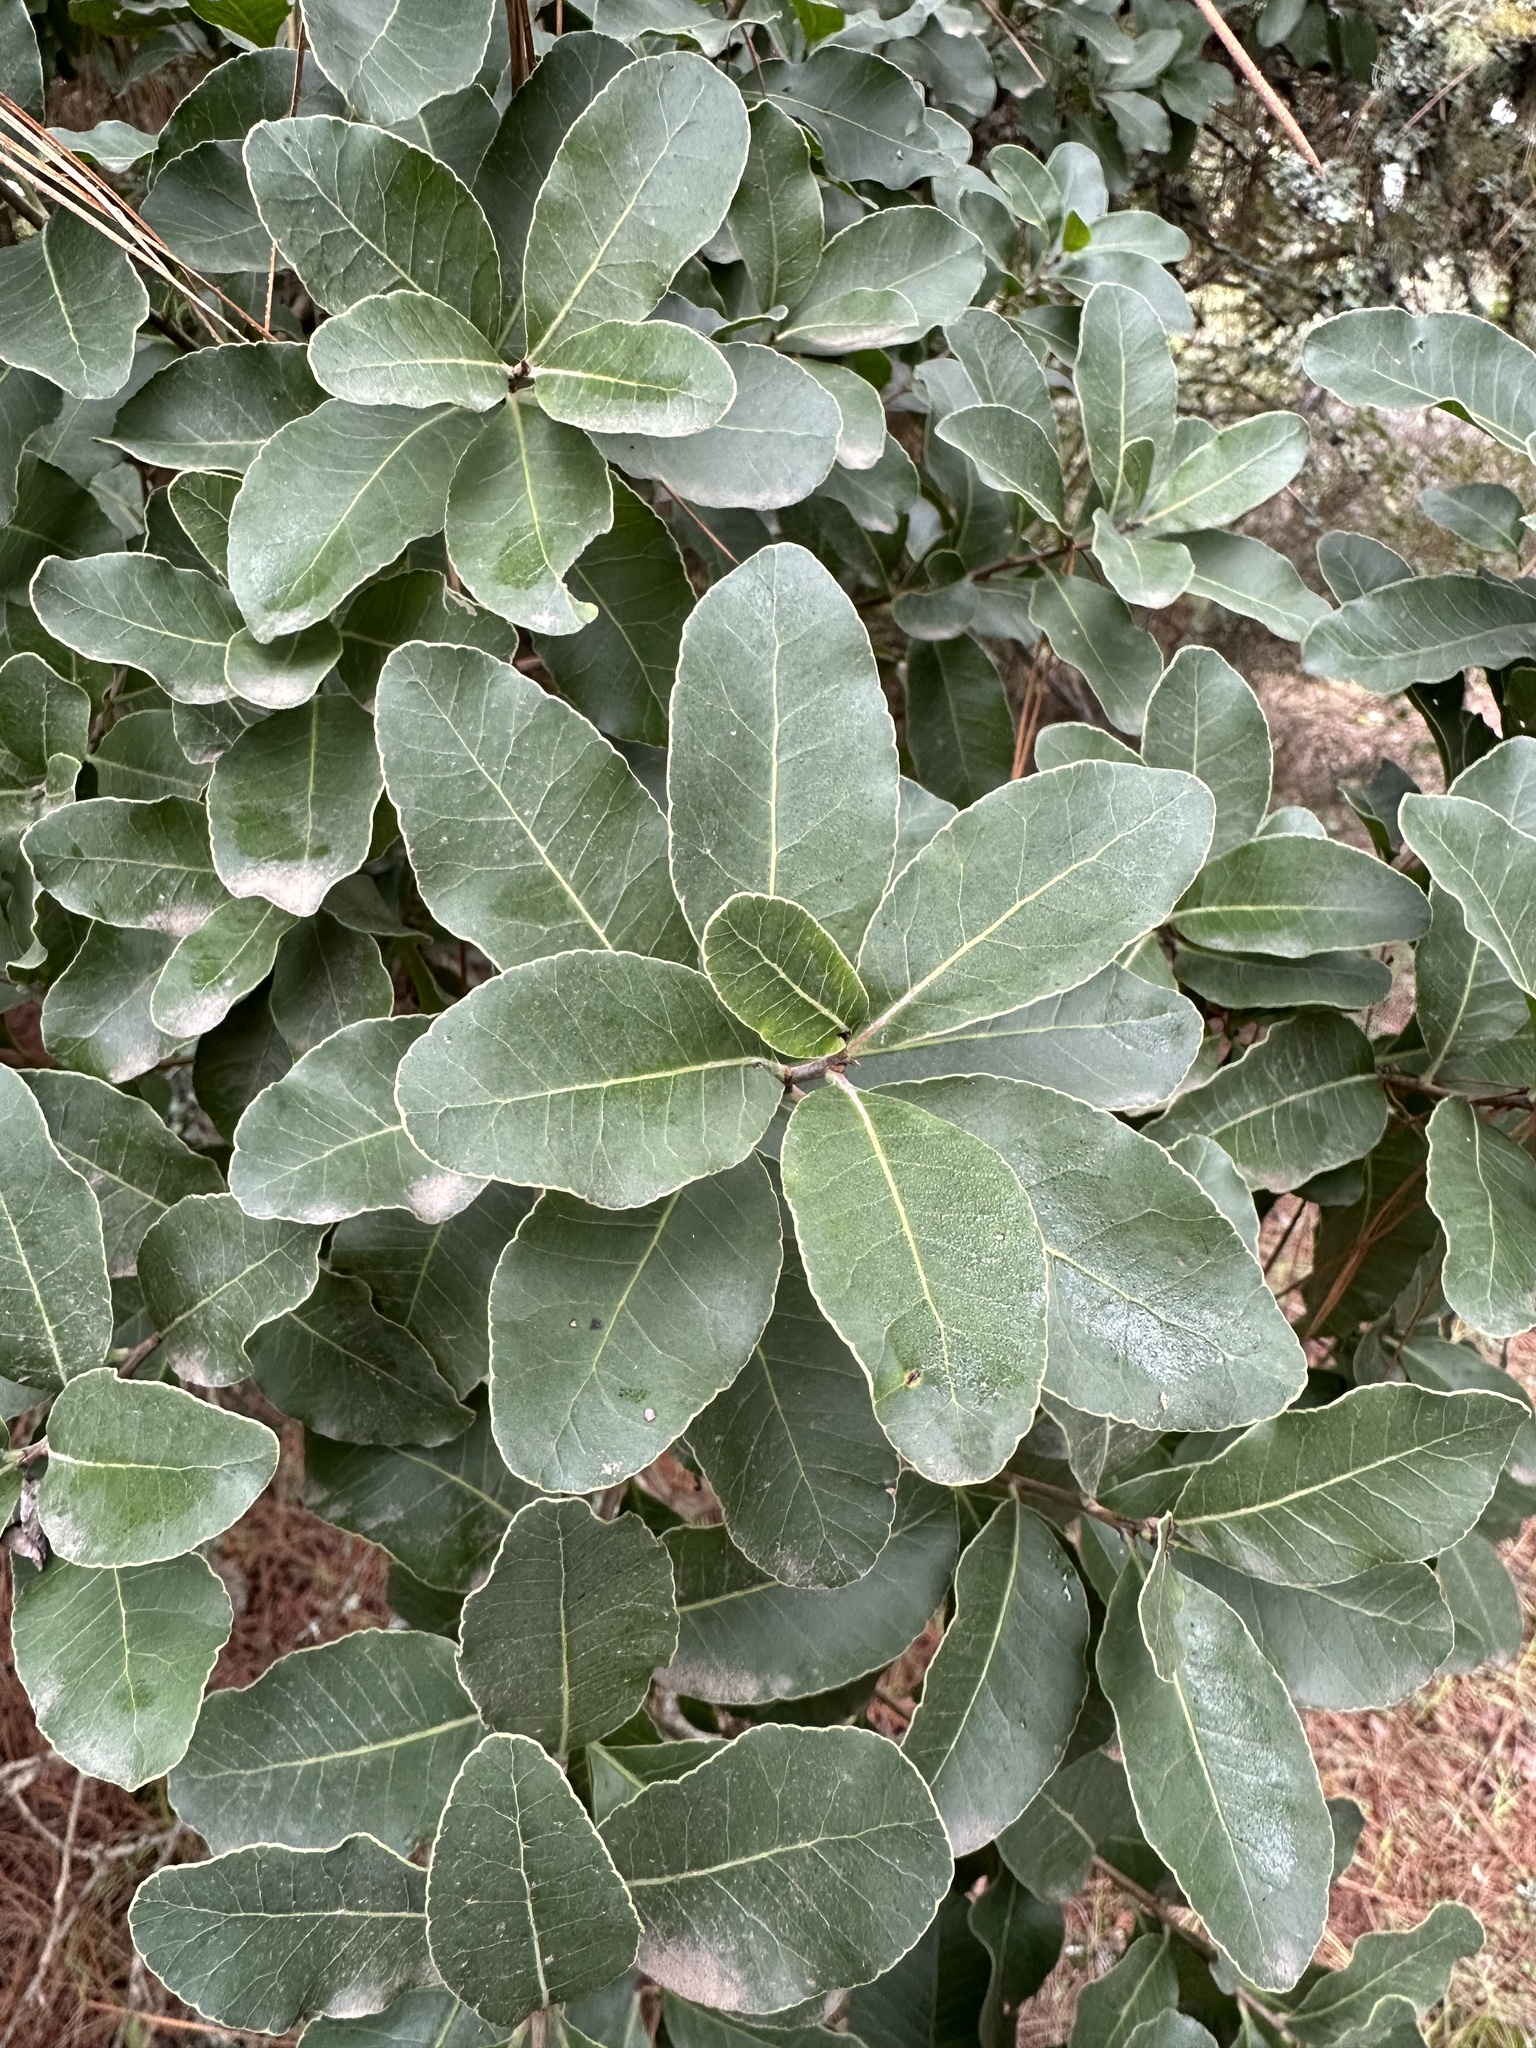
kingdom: Plantae
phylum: Tracheophyta
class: Magnoliopsida
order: Sapindales
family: Anacardiaceae
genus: Lithraea
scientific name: Lithraea caustica
